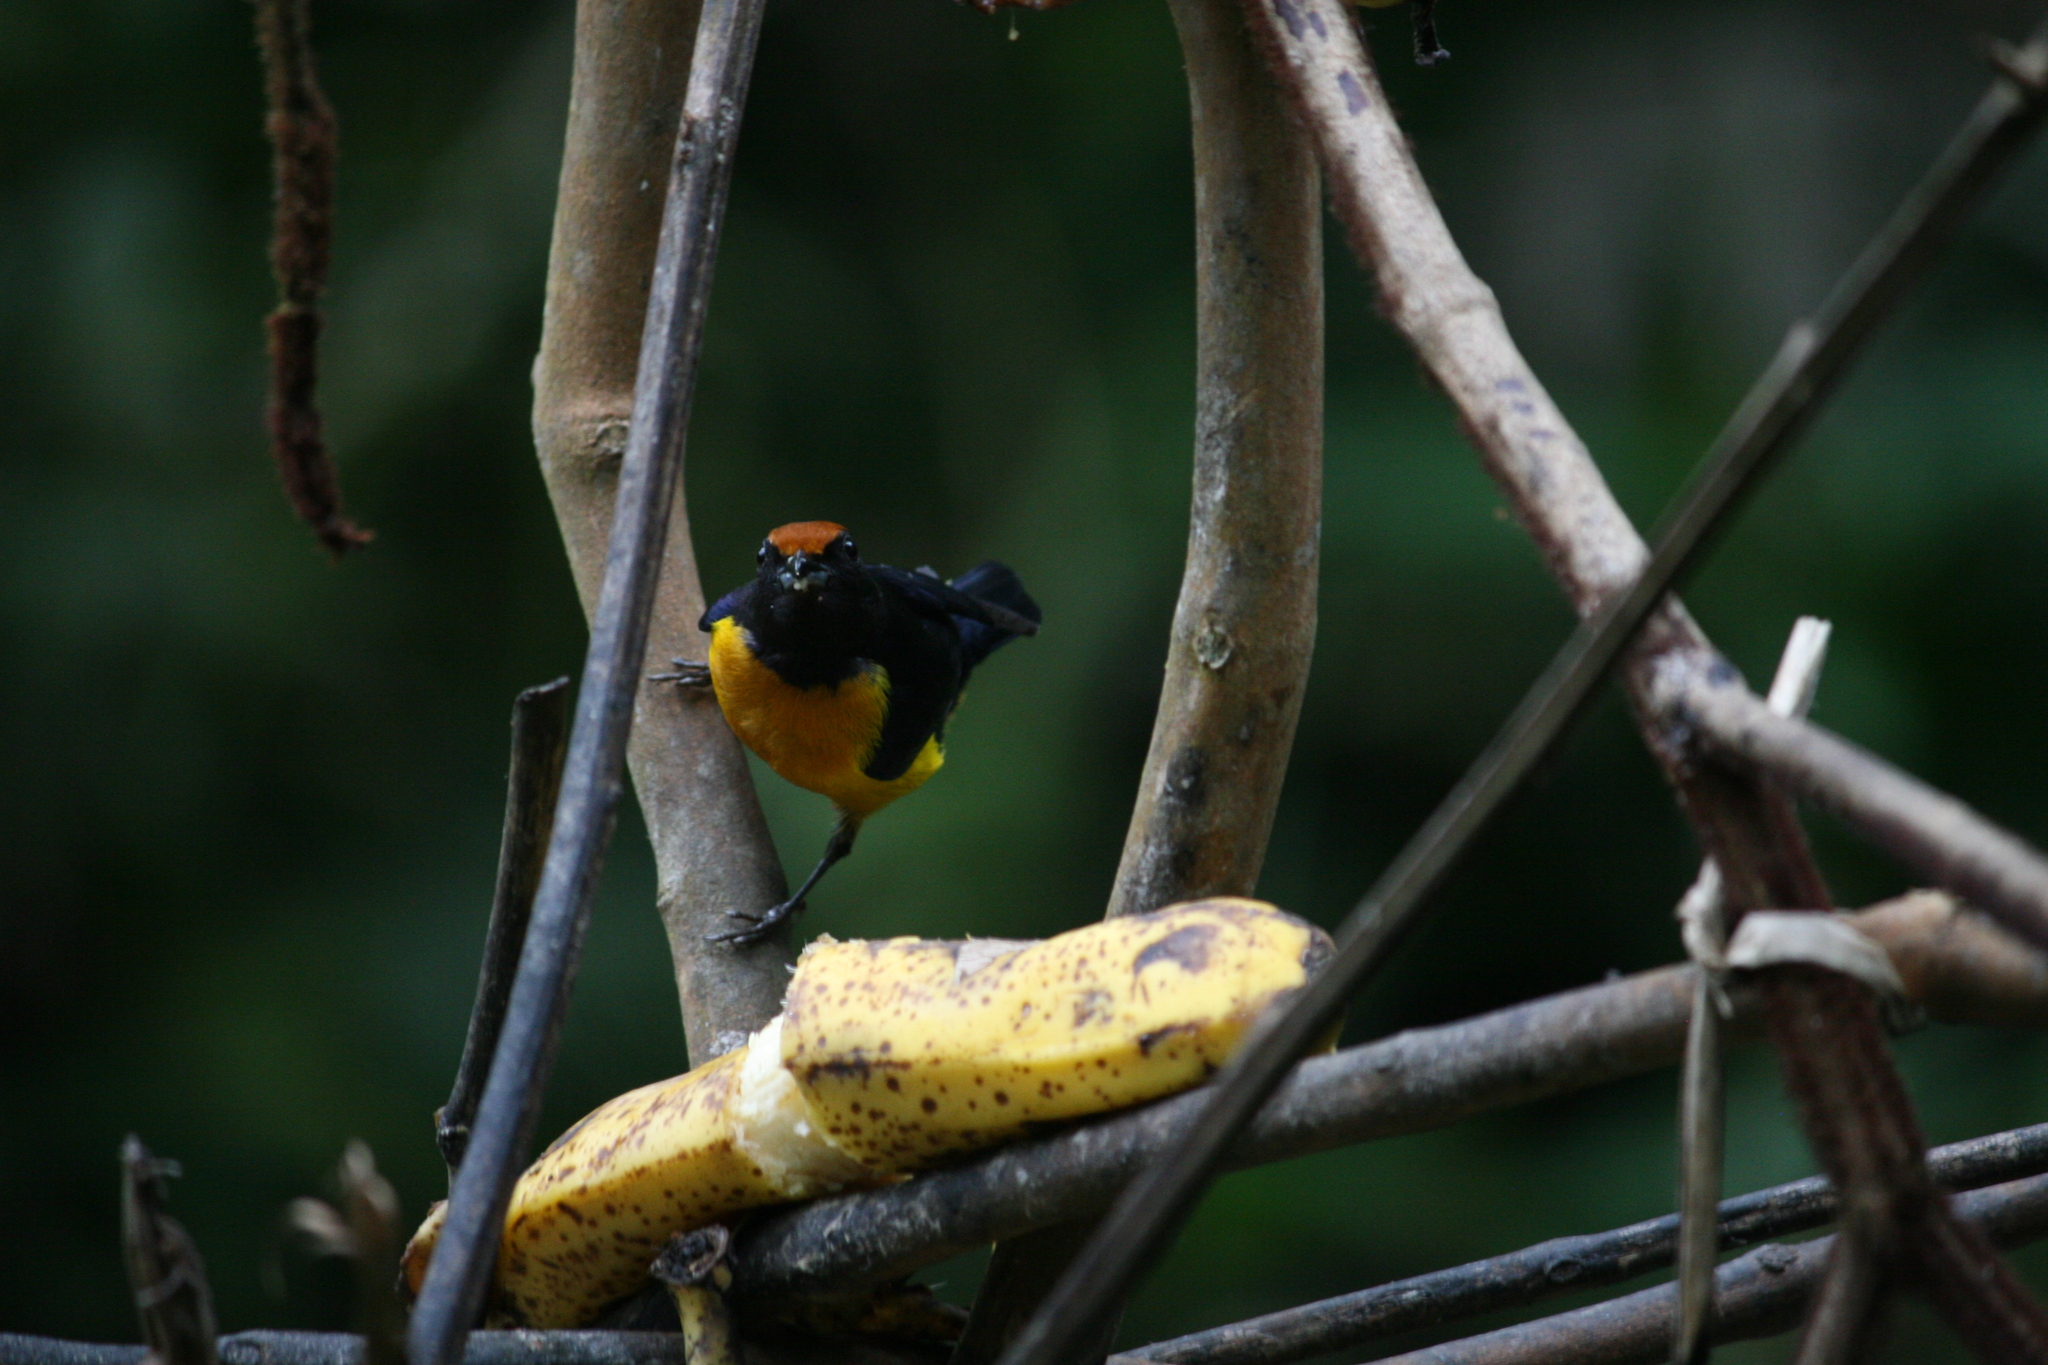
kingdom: Animalia
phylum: Chordata
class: Aves
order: Passeriformes
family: Fringillidae
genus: Euphonia
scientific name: Euphonia xanthogaster
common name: Orange-bellied euphonia
